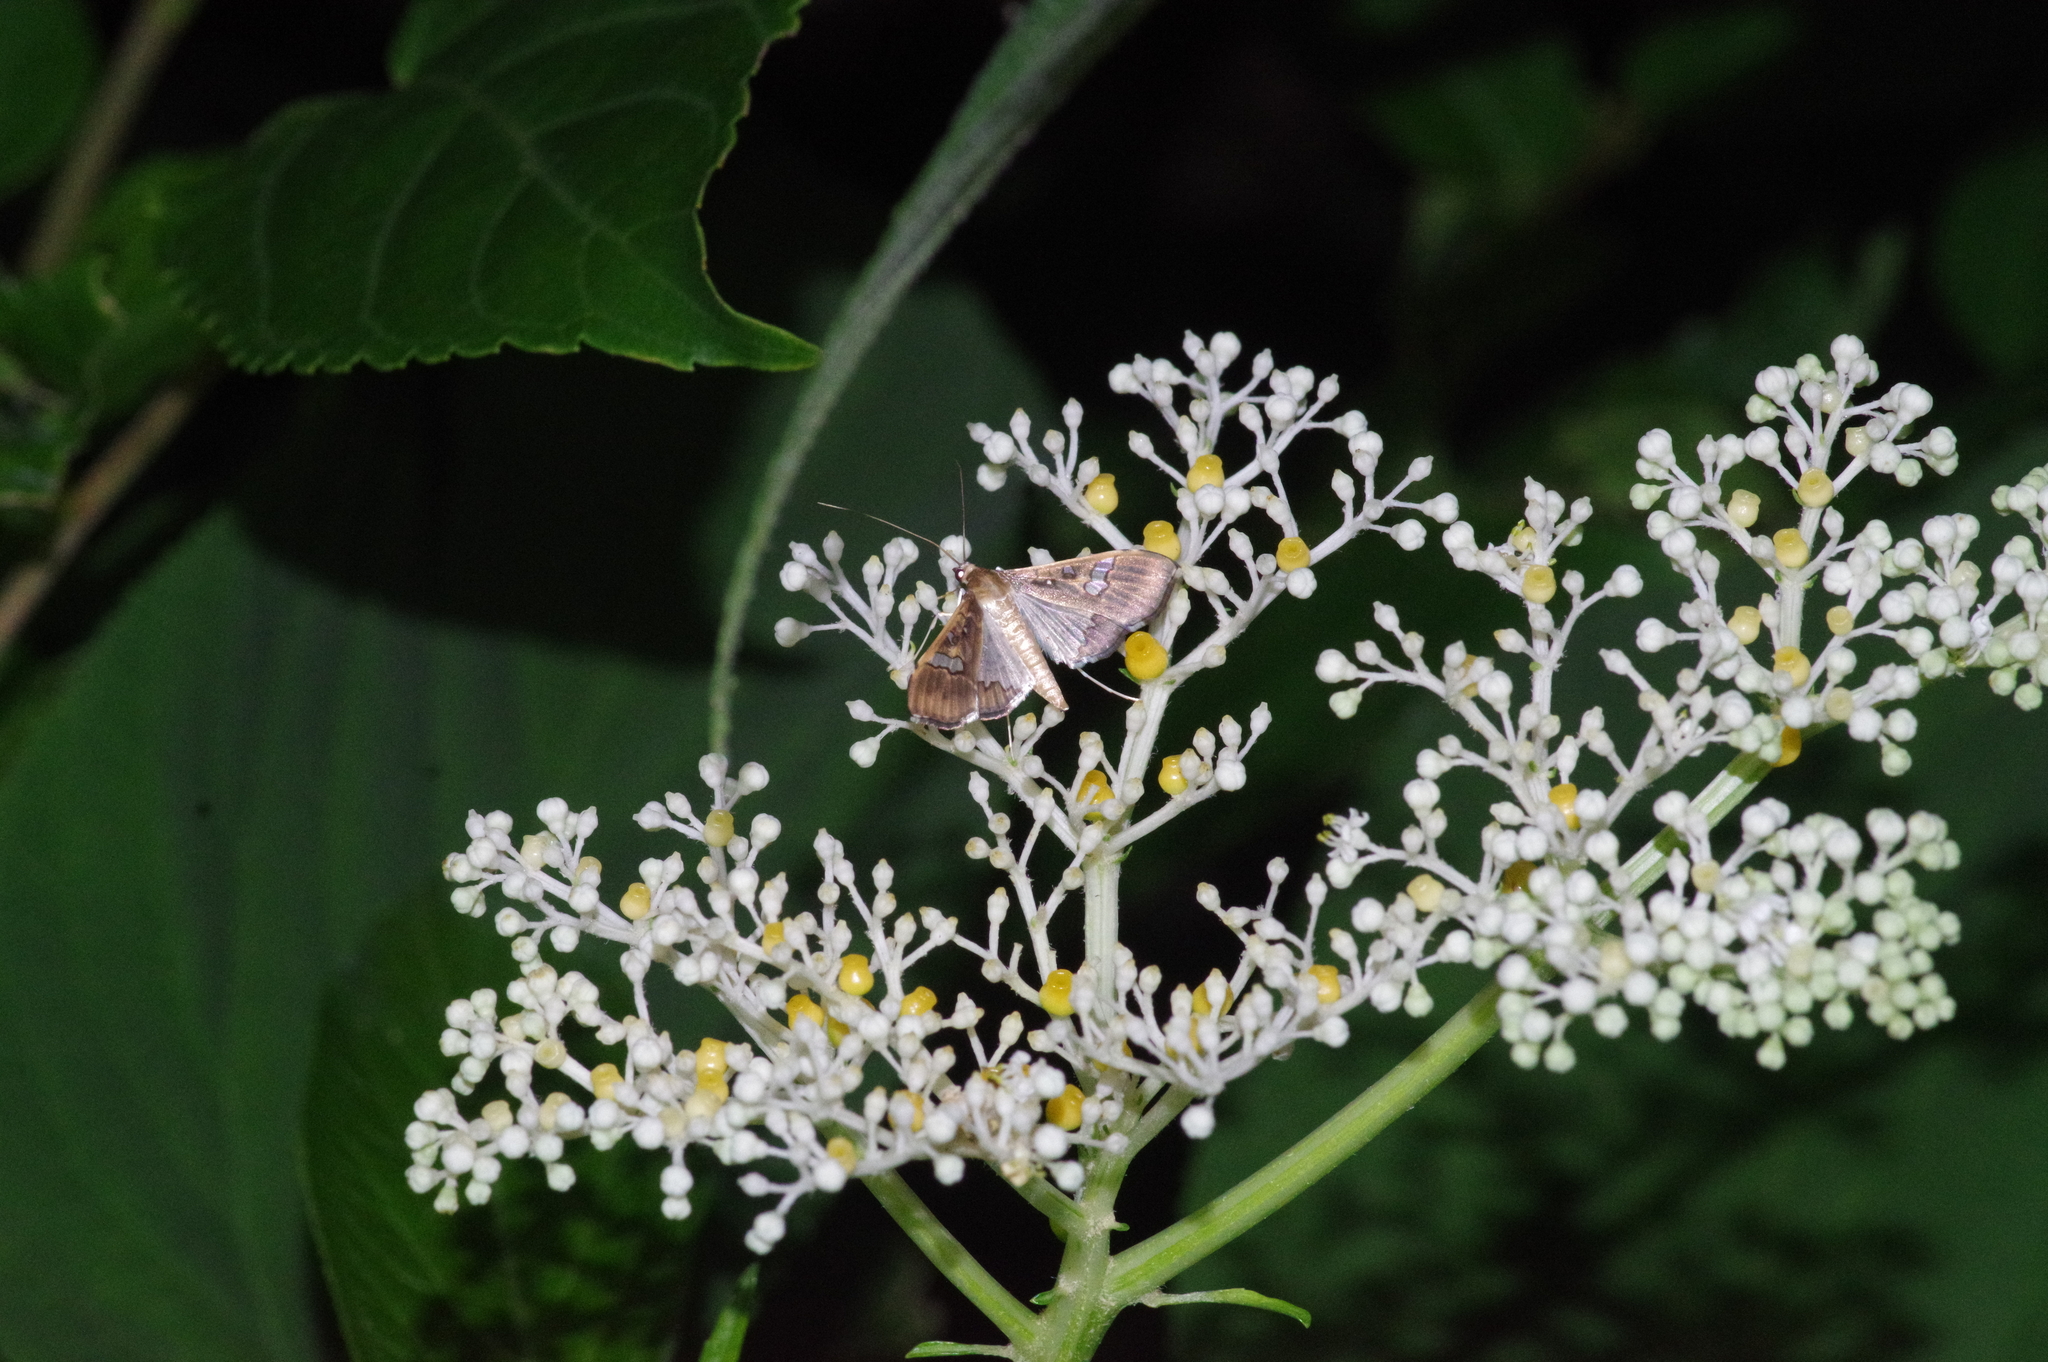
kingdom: Animalia
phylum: Arthropoda
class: Insecta
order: Lepidoptera
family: Crambidae
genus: Maruca
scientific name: Maruca vitrata
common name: Maruca pod borer
